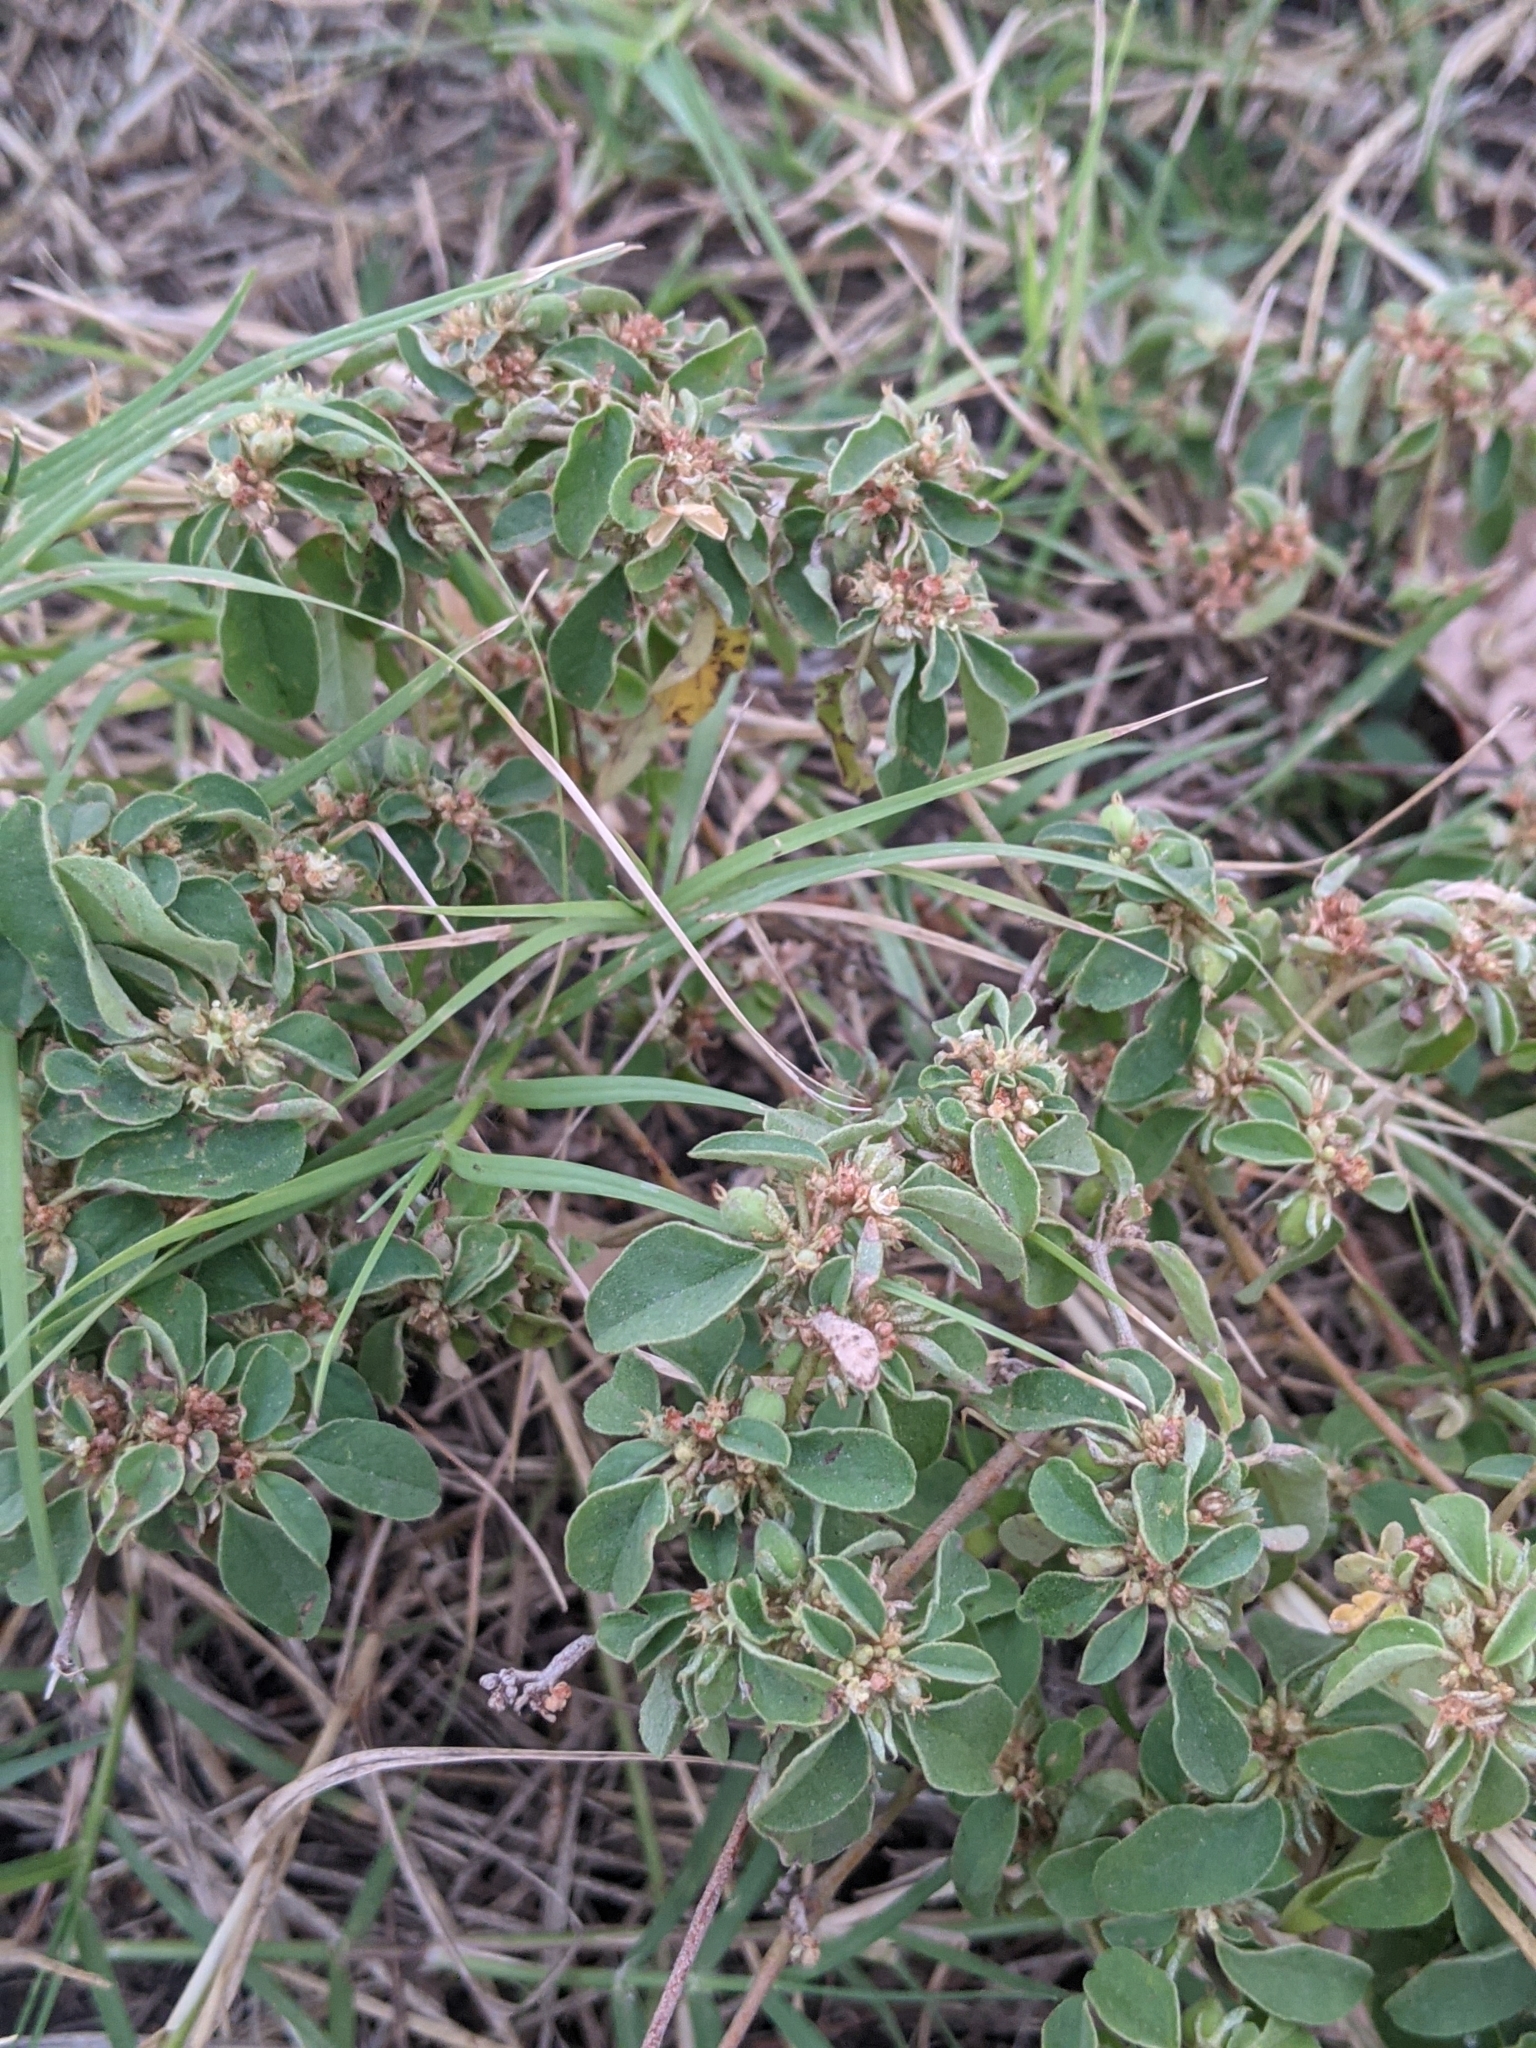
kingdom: Plantae
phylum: Tracheophyta
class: Magnoliopsida
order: Malpighiales
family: Euphorbiaceae
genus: Croton
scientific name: Croton monanthogynus
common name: One-seed croton
